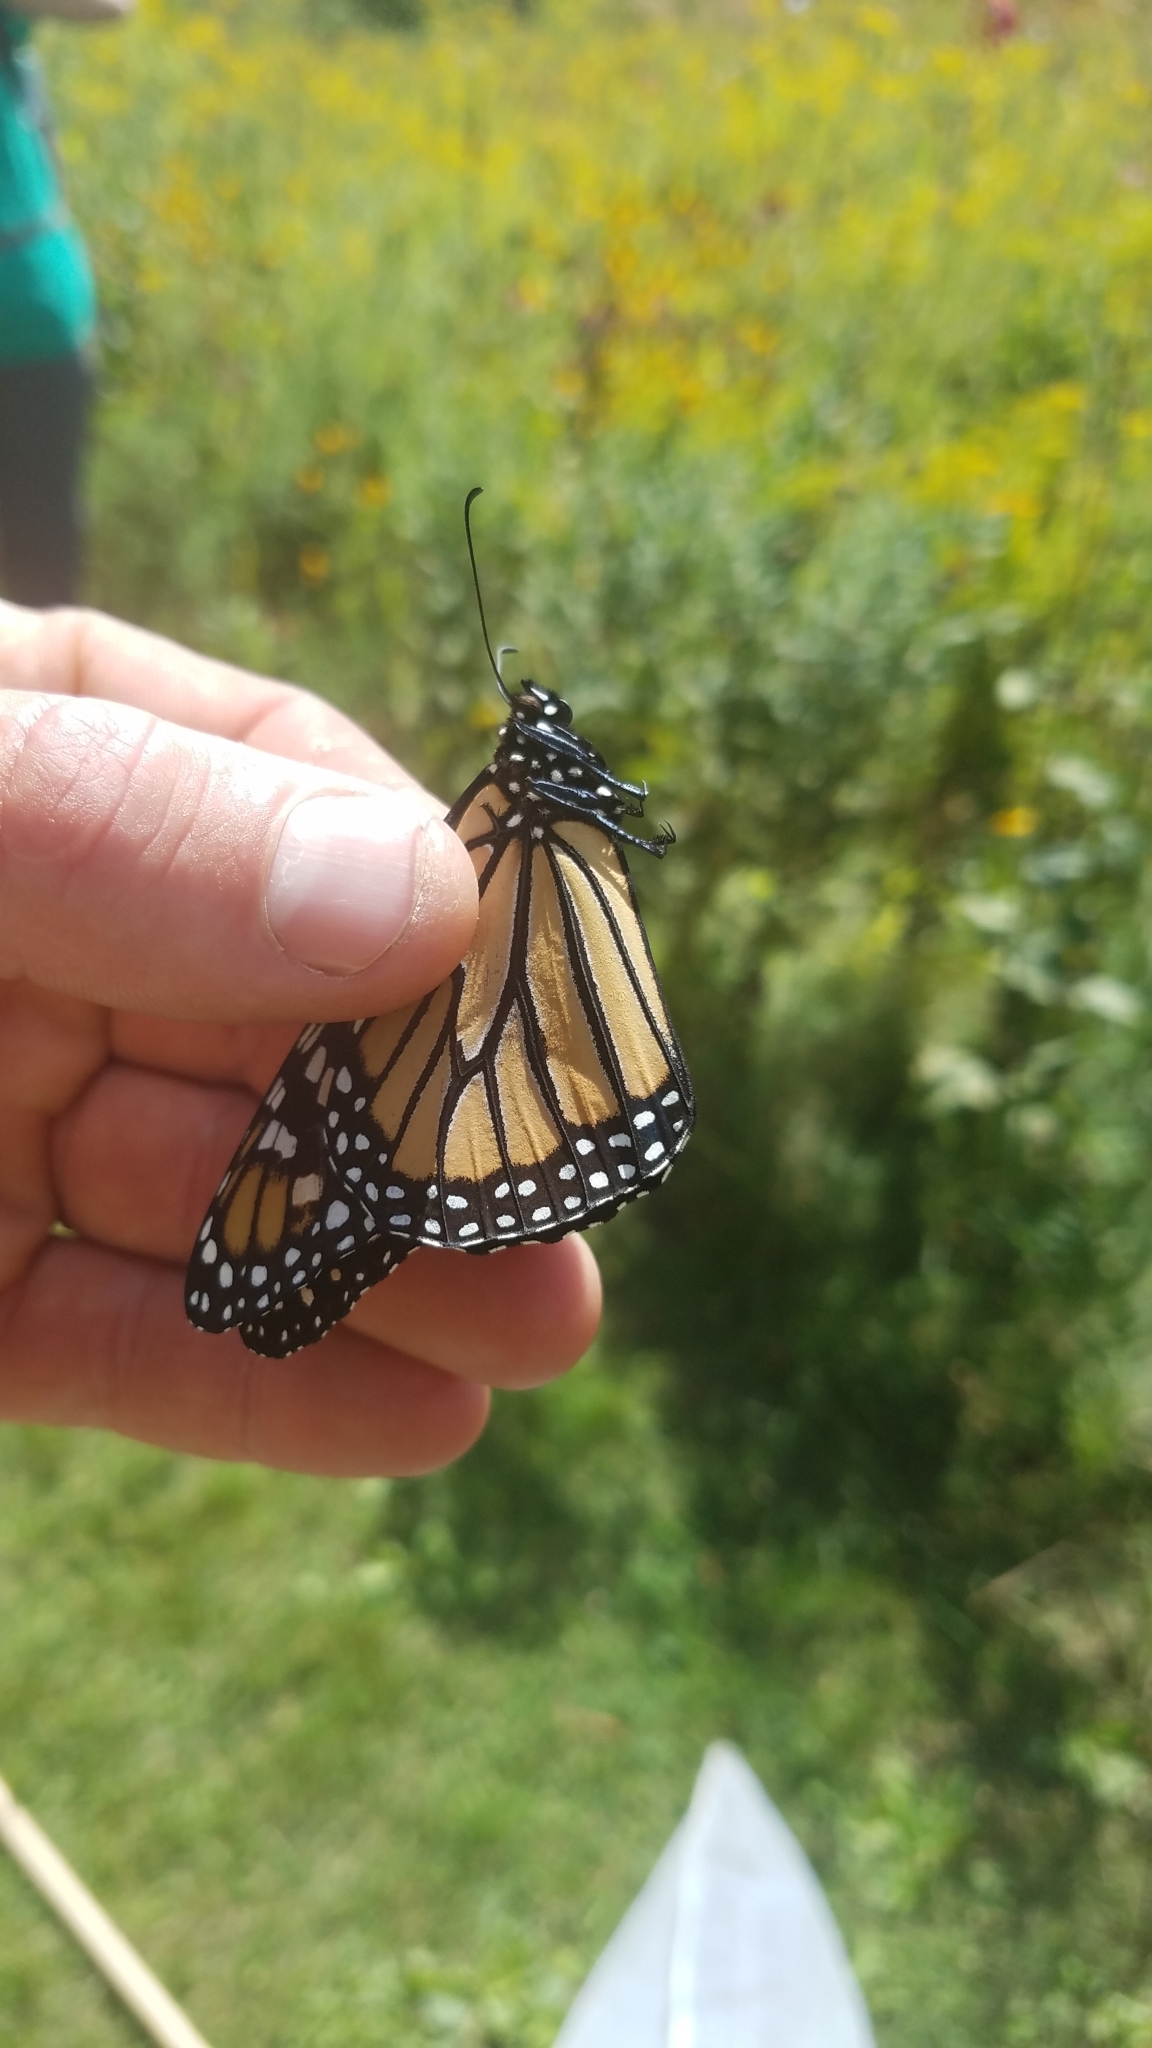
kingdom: Animalia
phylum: Arthropoda
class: Insecta
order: Lepidoptera
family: Nymphalidae
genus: Danaus
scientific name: Danaus plexippus
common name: Monarch
